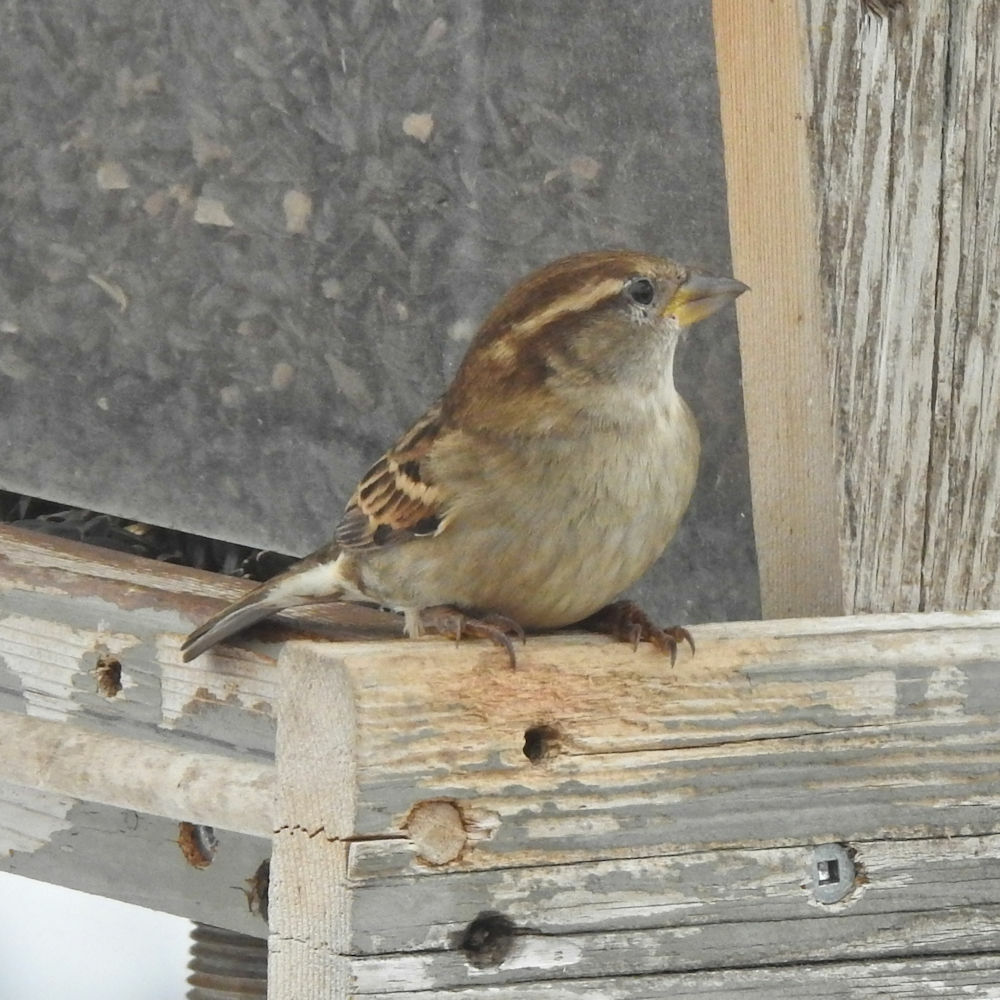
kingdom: Animalia
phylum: Chordata
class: Aves
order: Passeriformes
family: Passeridae
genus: Passer
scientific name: Passer domesticus
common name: House sparrow
